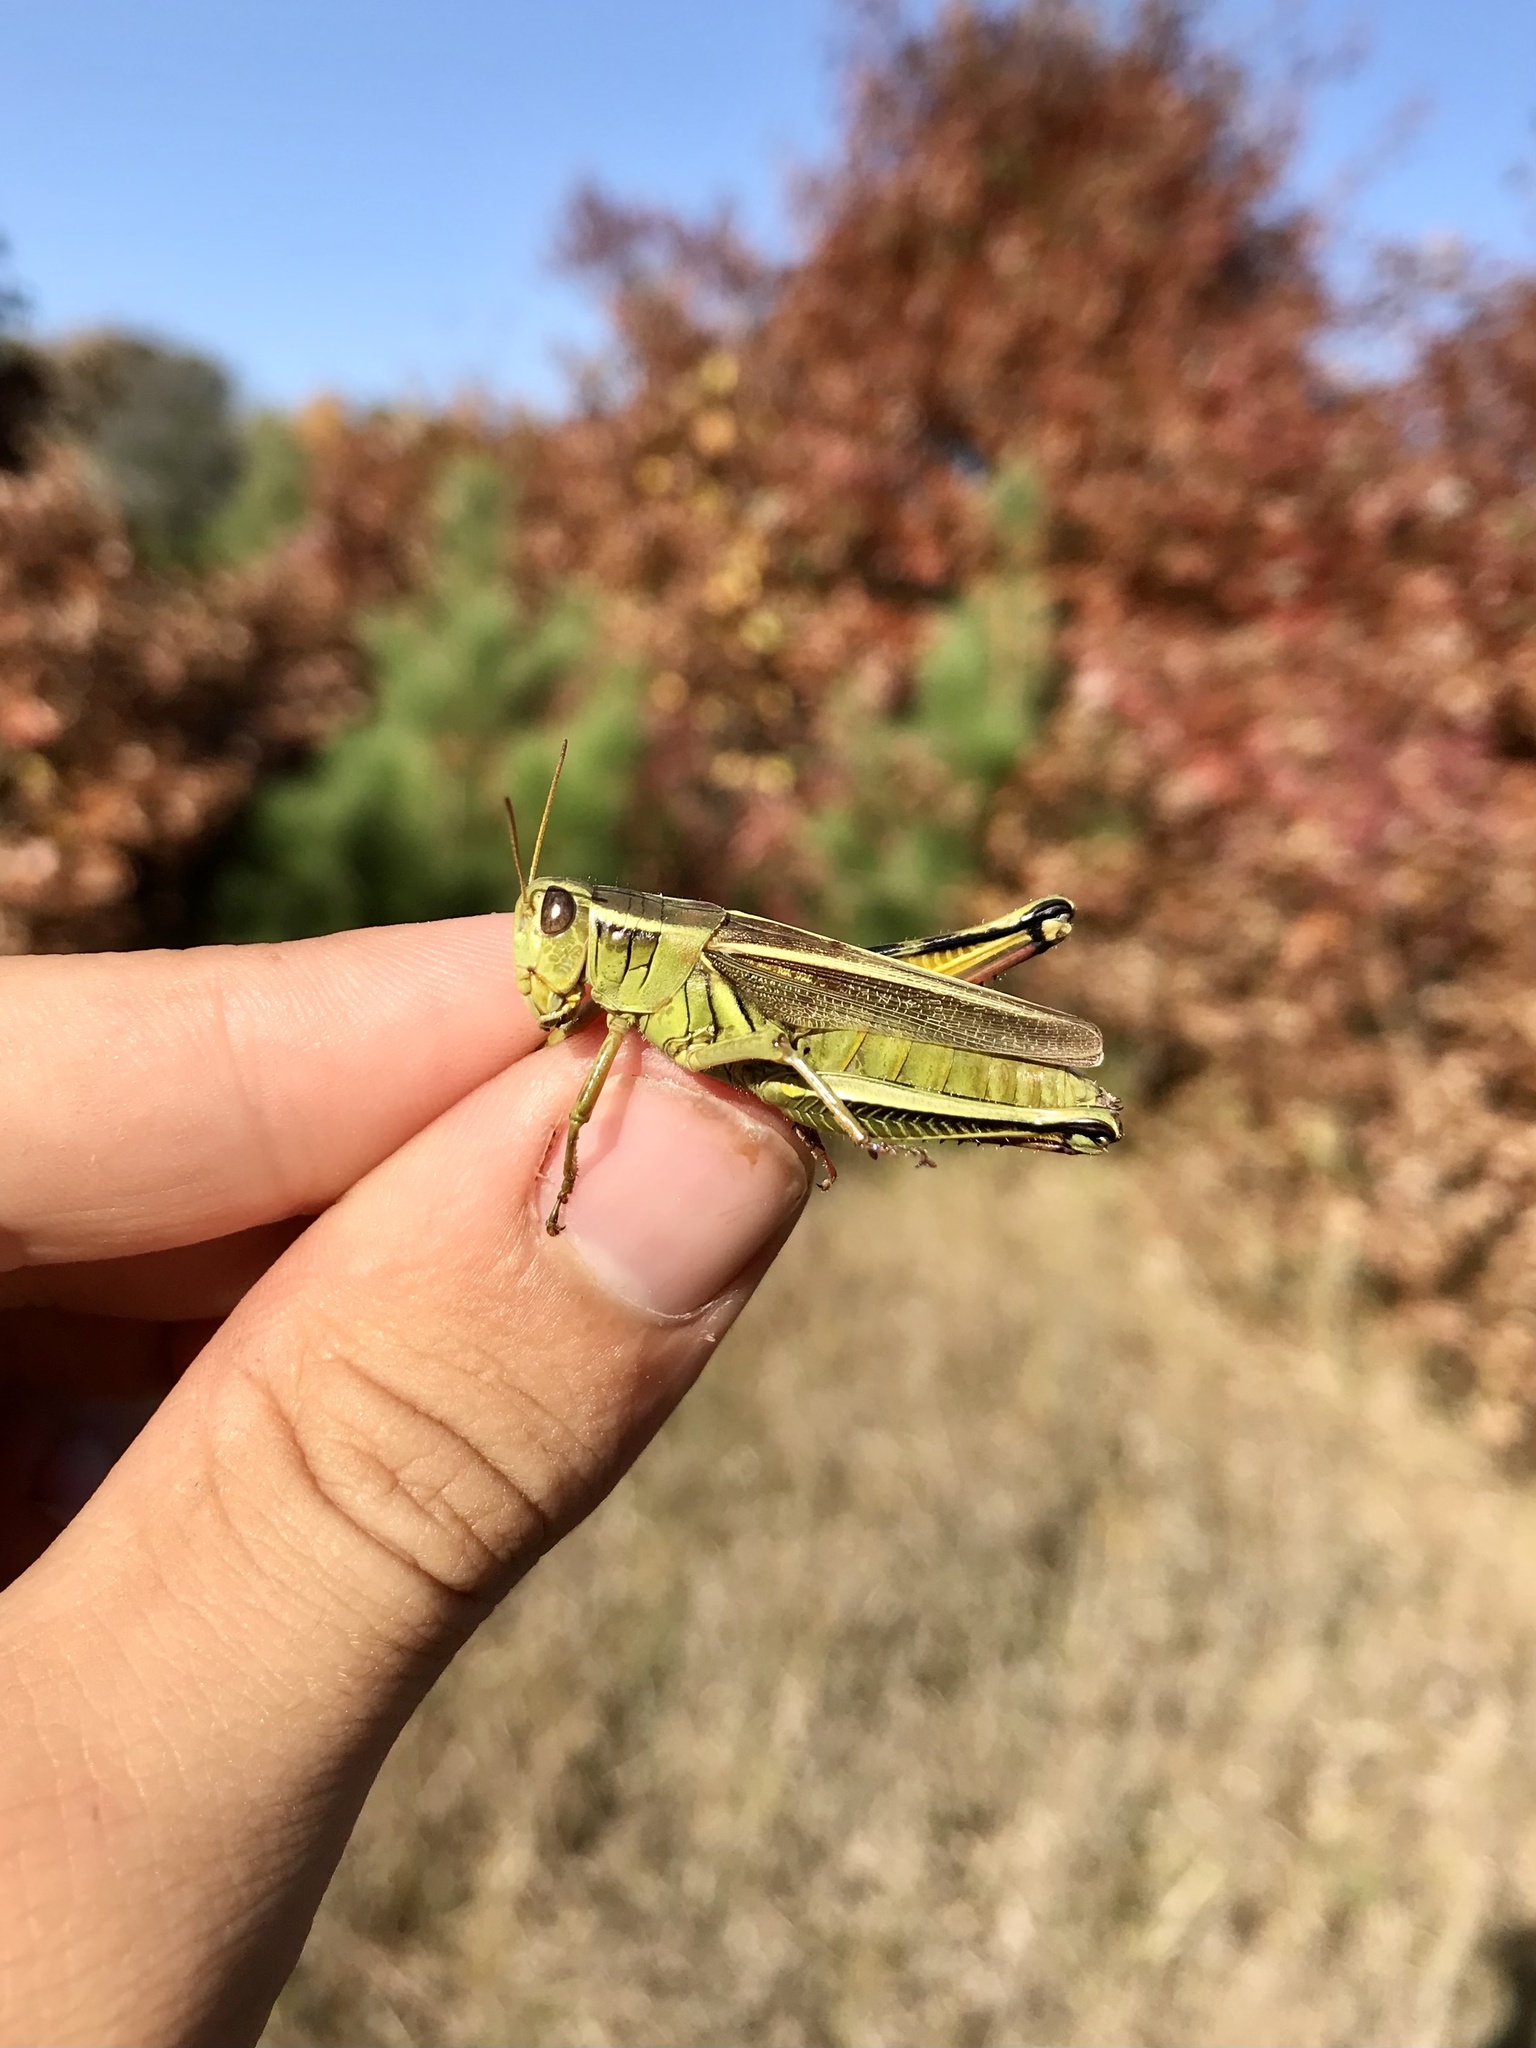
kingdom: Animalia
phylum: Arthropoda
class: Insecta
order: Orthoptera
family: Acrididae
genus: Melanoplus
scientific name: Melanoplus bivittatus
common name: Two-striped grasshopper
